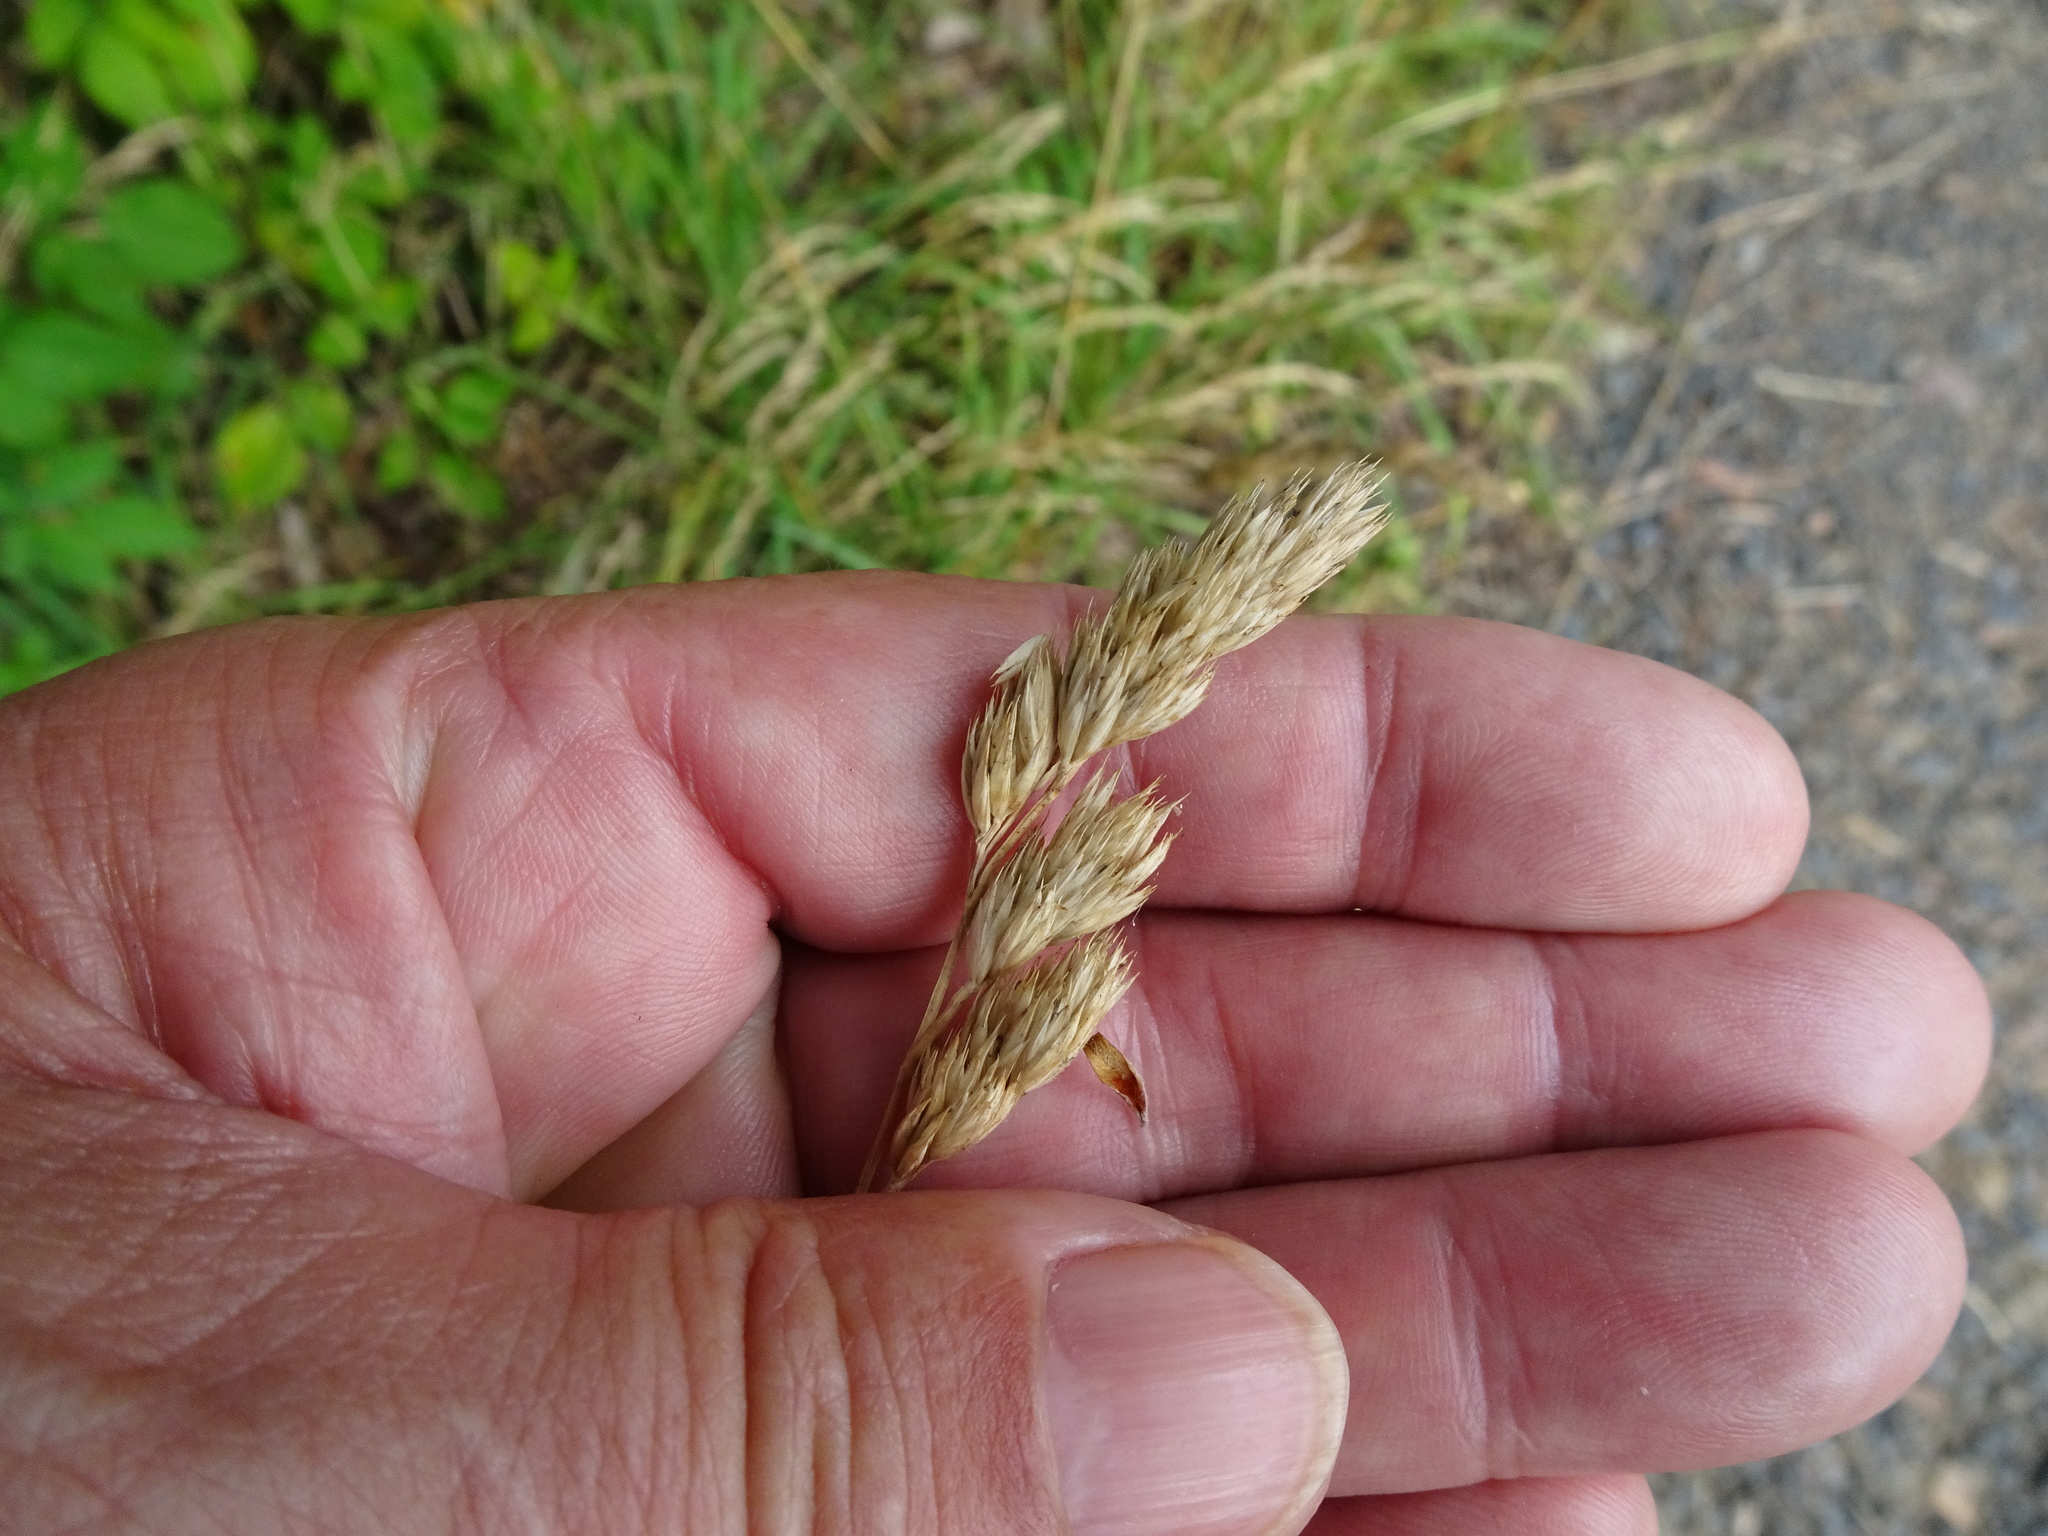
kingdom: Plantae
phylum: Tracheophyta
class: Liliopsida
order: Poales
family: Poaceae
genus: Dactylis
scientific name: Dactylis glomerata
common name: Orchardgrass
